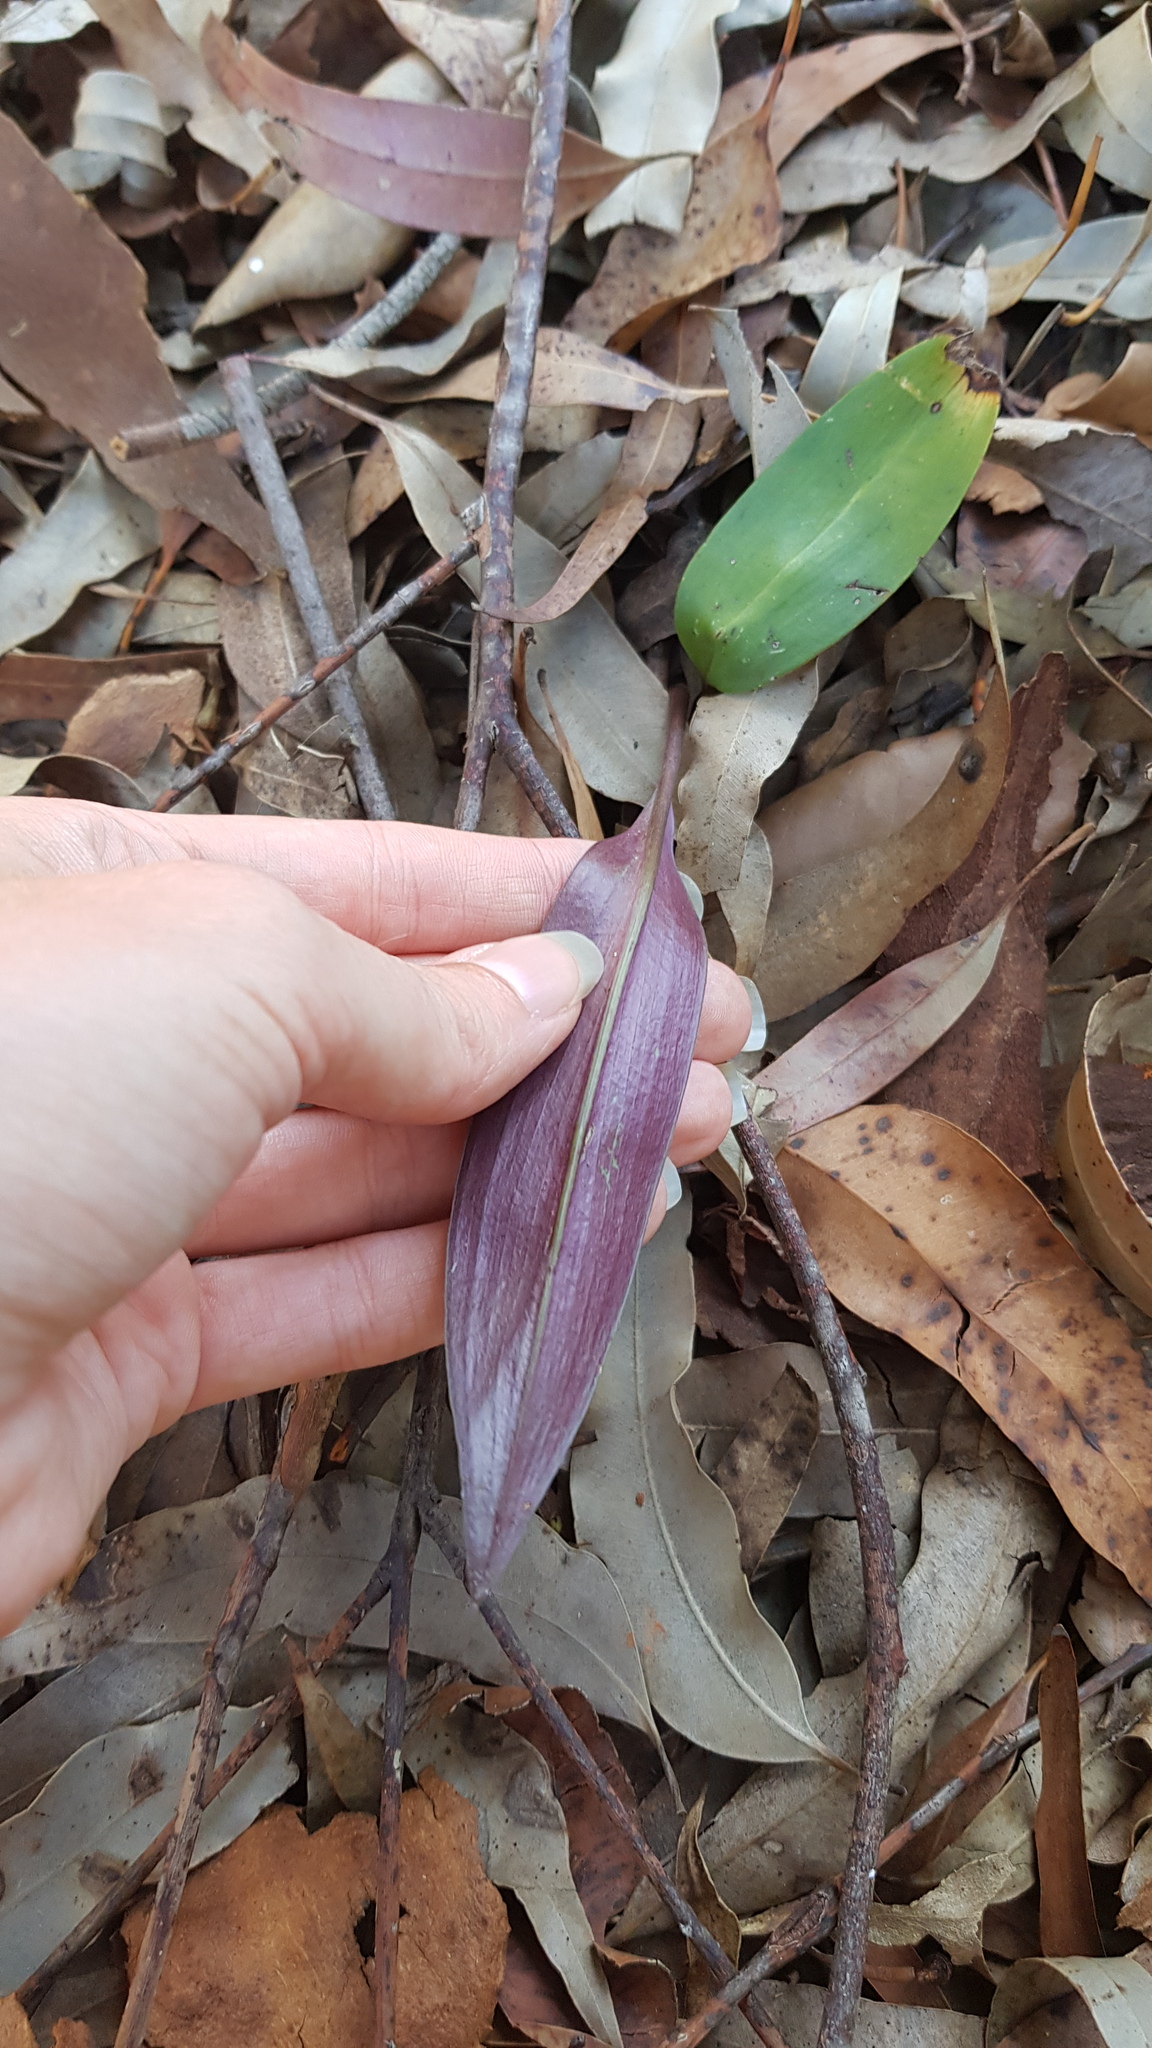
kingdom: Plantae
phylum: Tracheophyta
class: Liliopsida
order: Asparagales
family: Orchidaceae
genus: Cryptostylis
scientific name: Cryptostylis erecta
